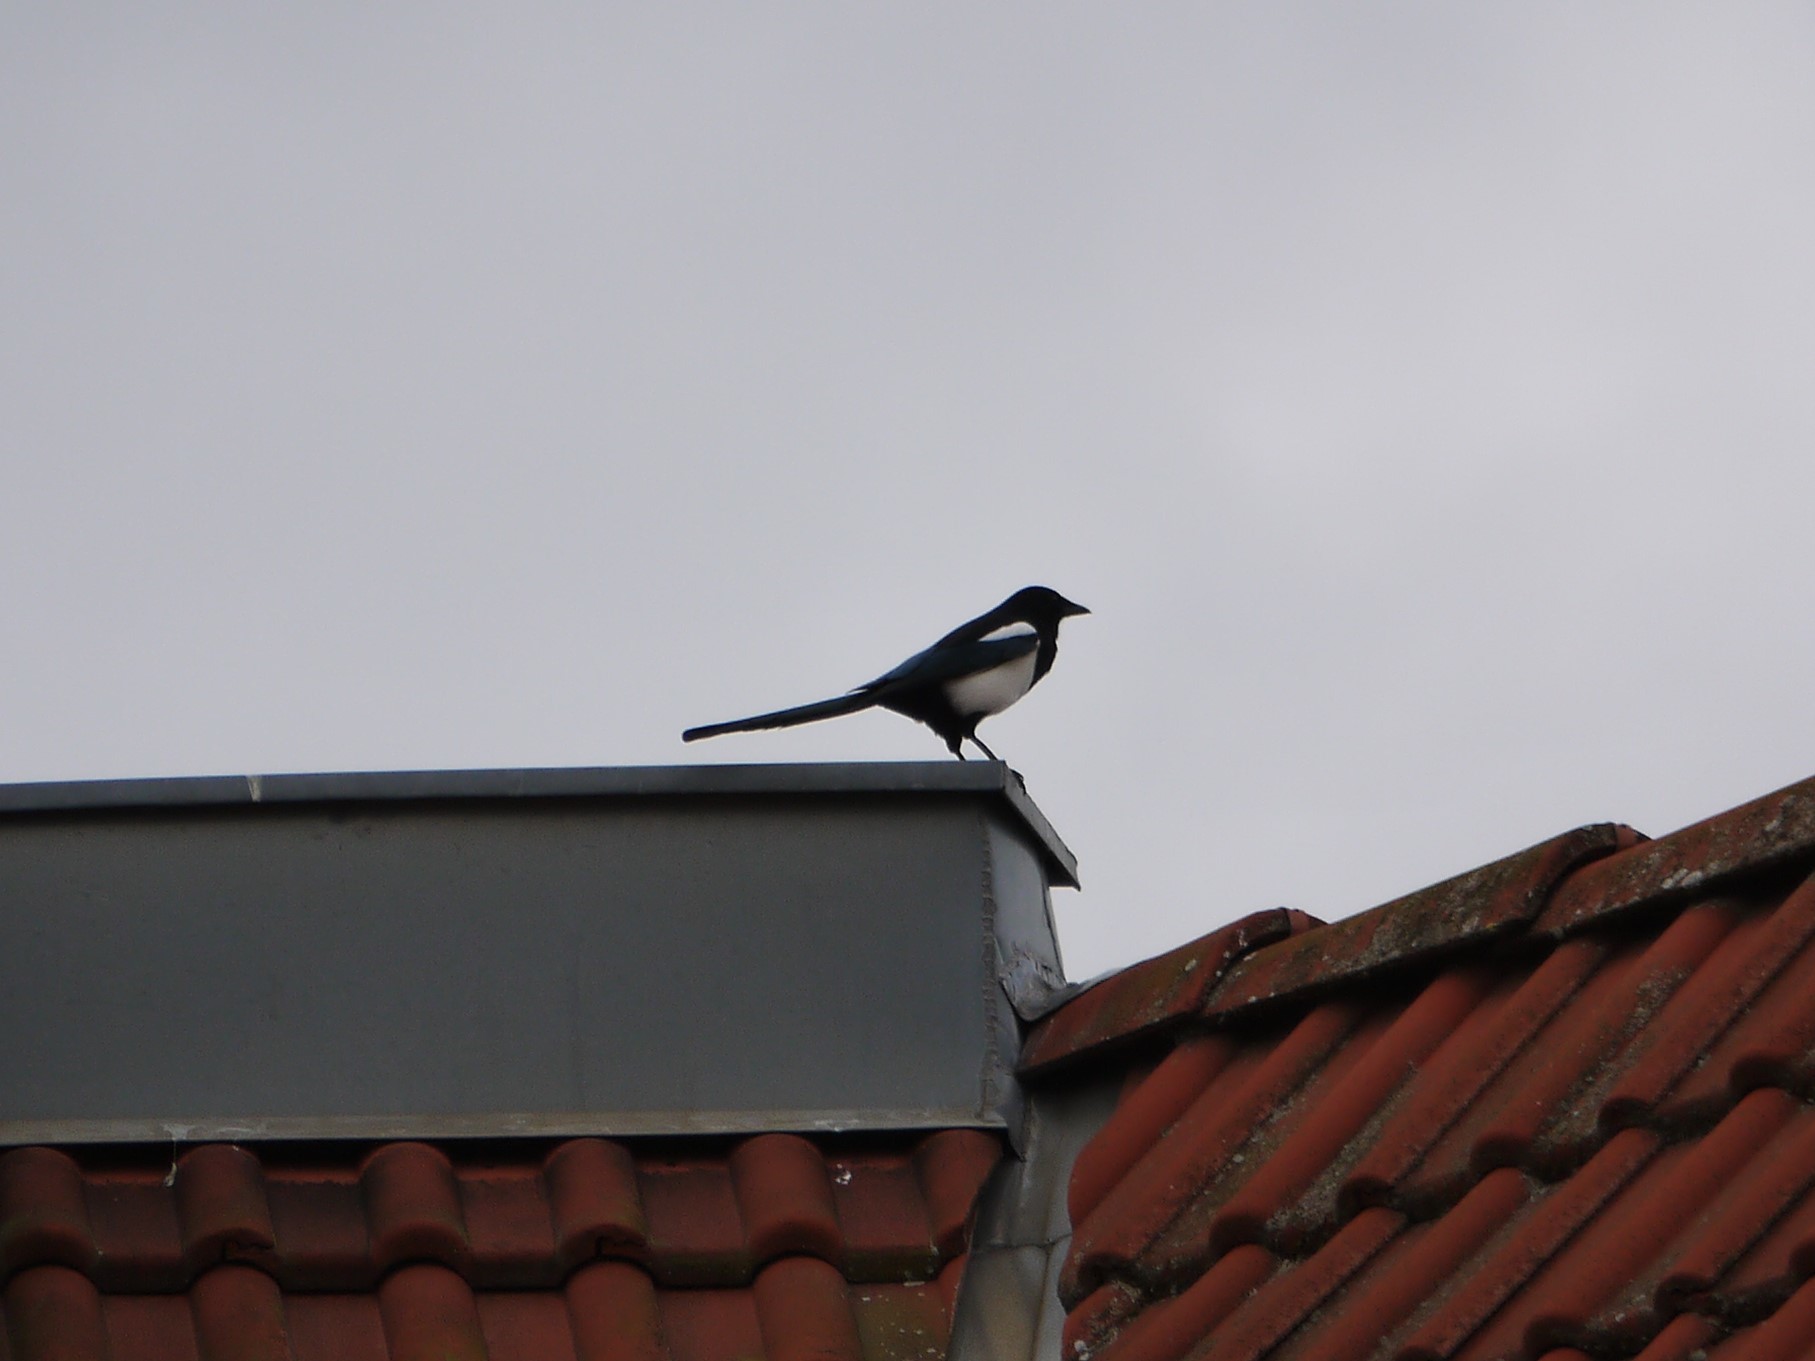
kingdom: Animalia
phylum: Chordata
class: Aves
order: Passeriformes
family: Corvidae
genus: Pica
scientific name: Pica pica
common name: Eurasian magpie
